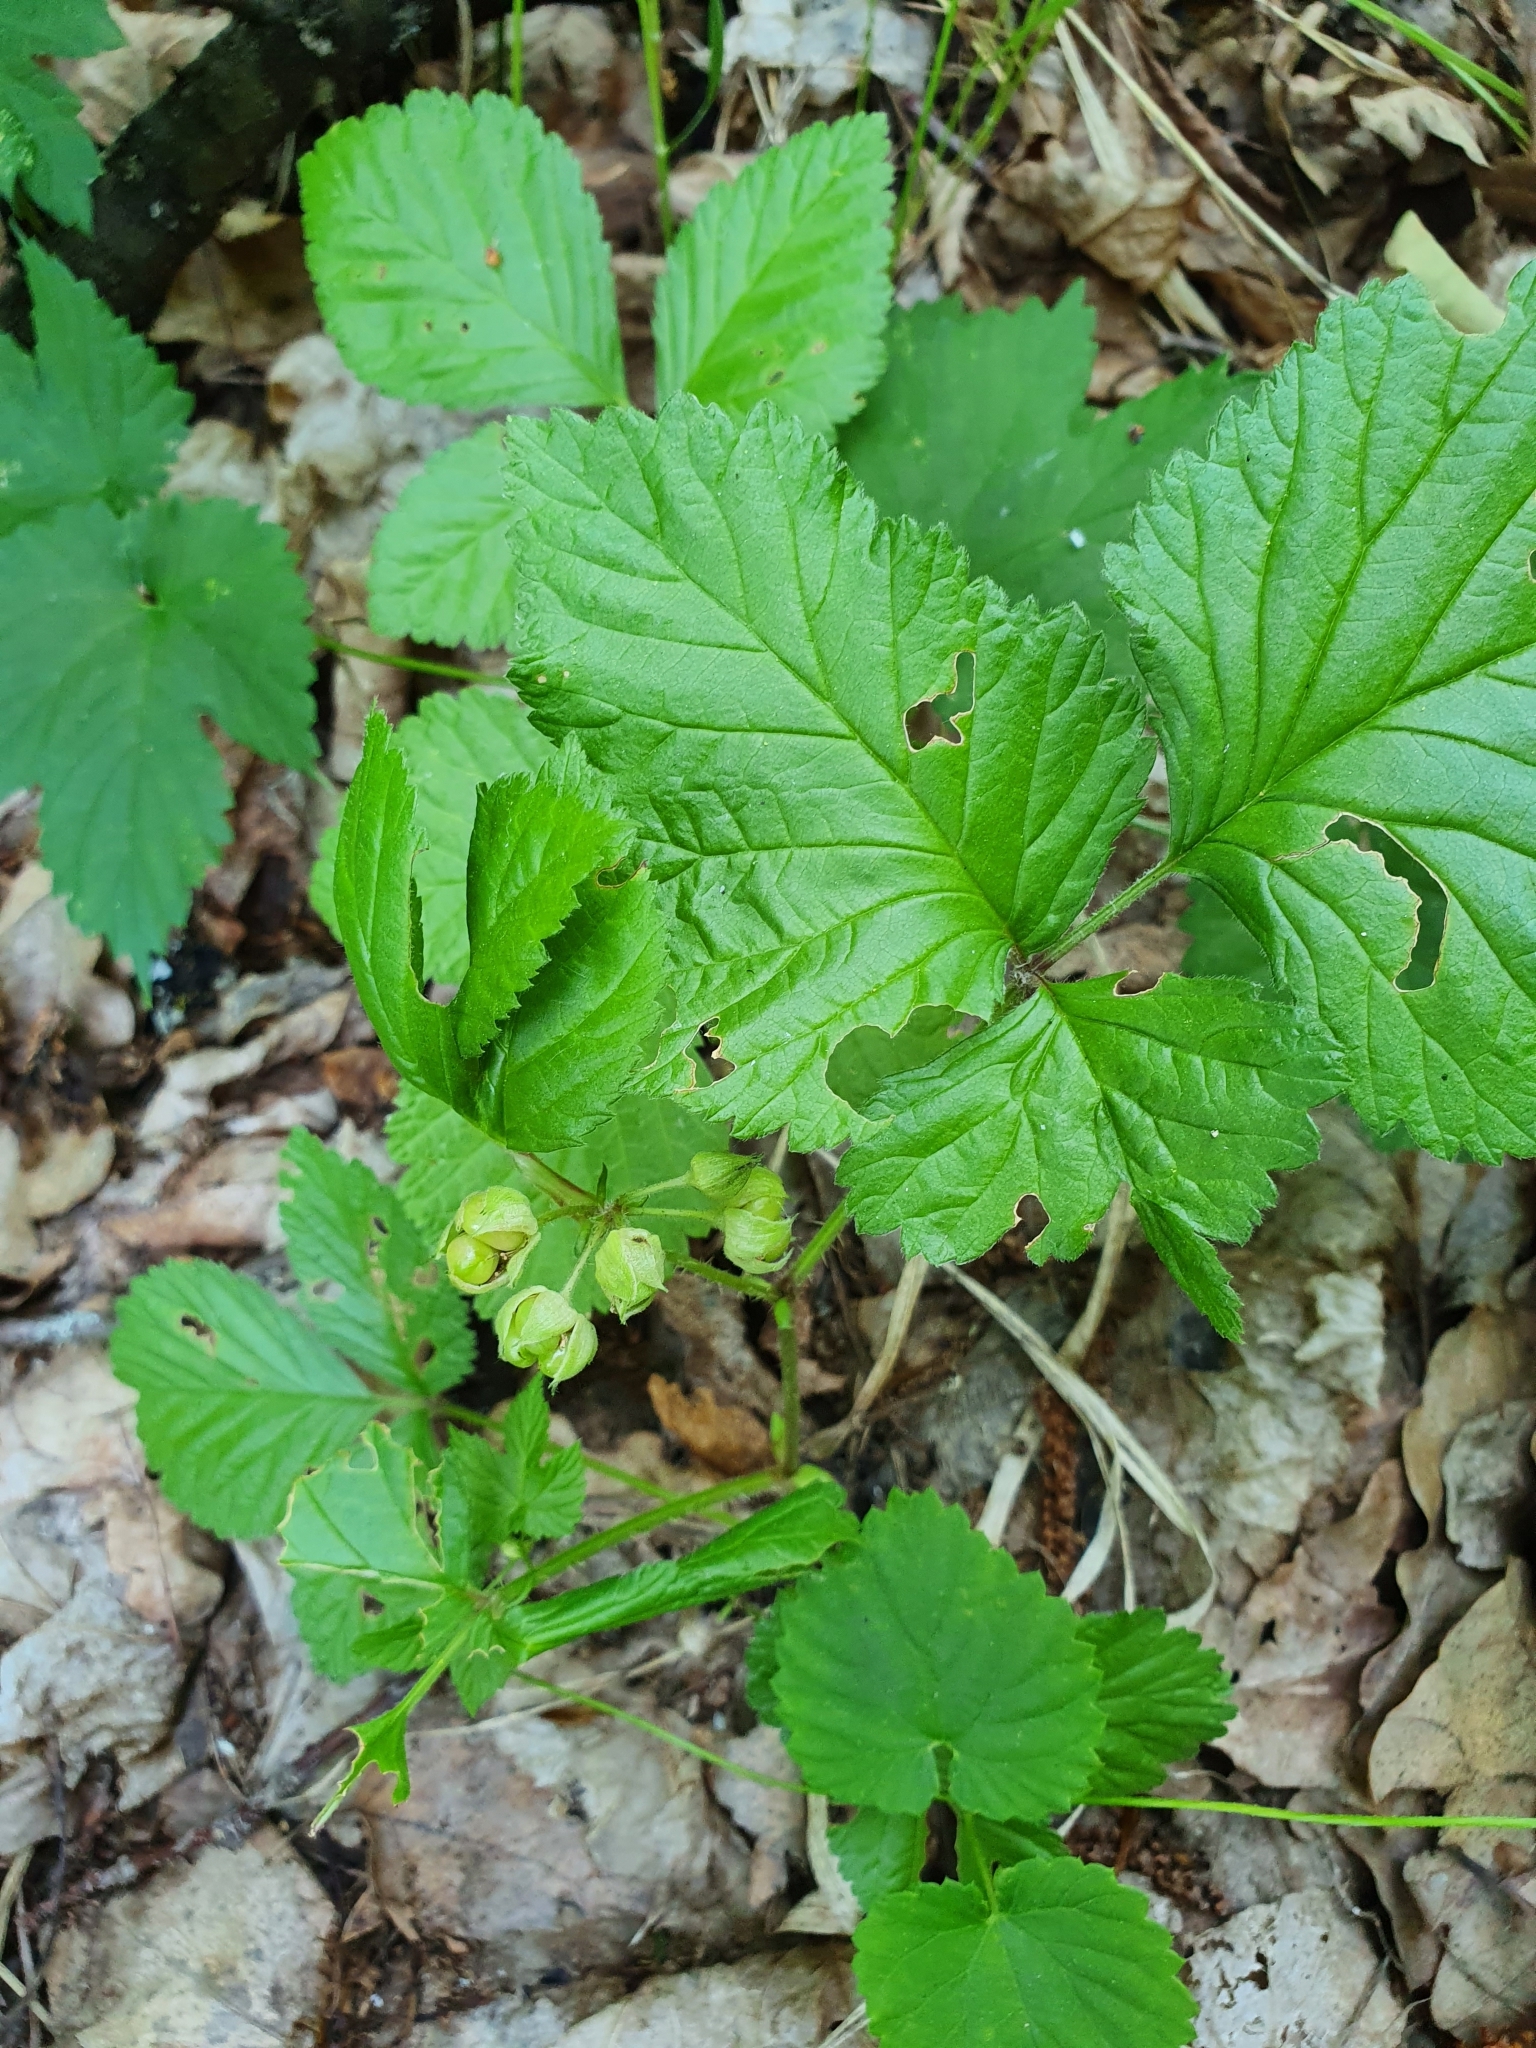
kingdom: Plantae
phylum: Tracheophyta
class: Magnoliopsida
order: Rosales
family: Rosaceae
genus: Rubus
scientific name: Rubus saxatilis
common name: Stone bramble
